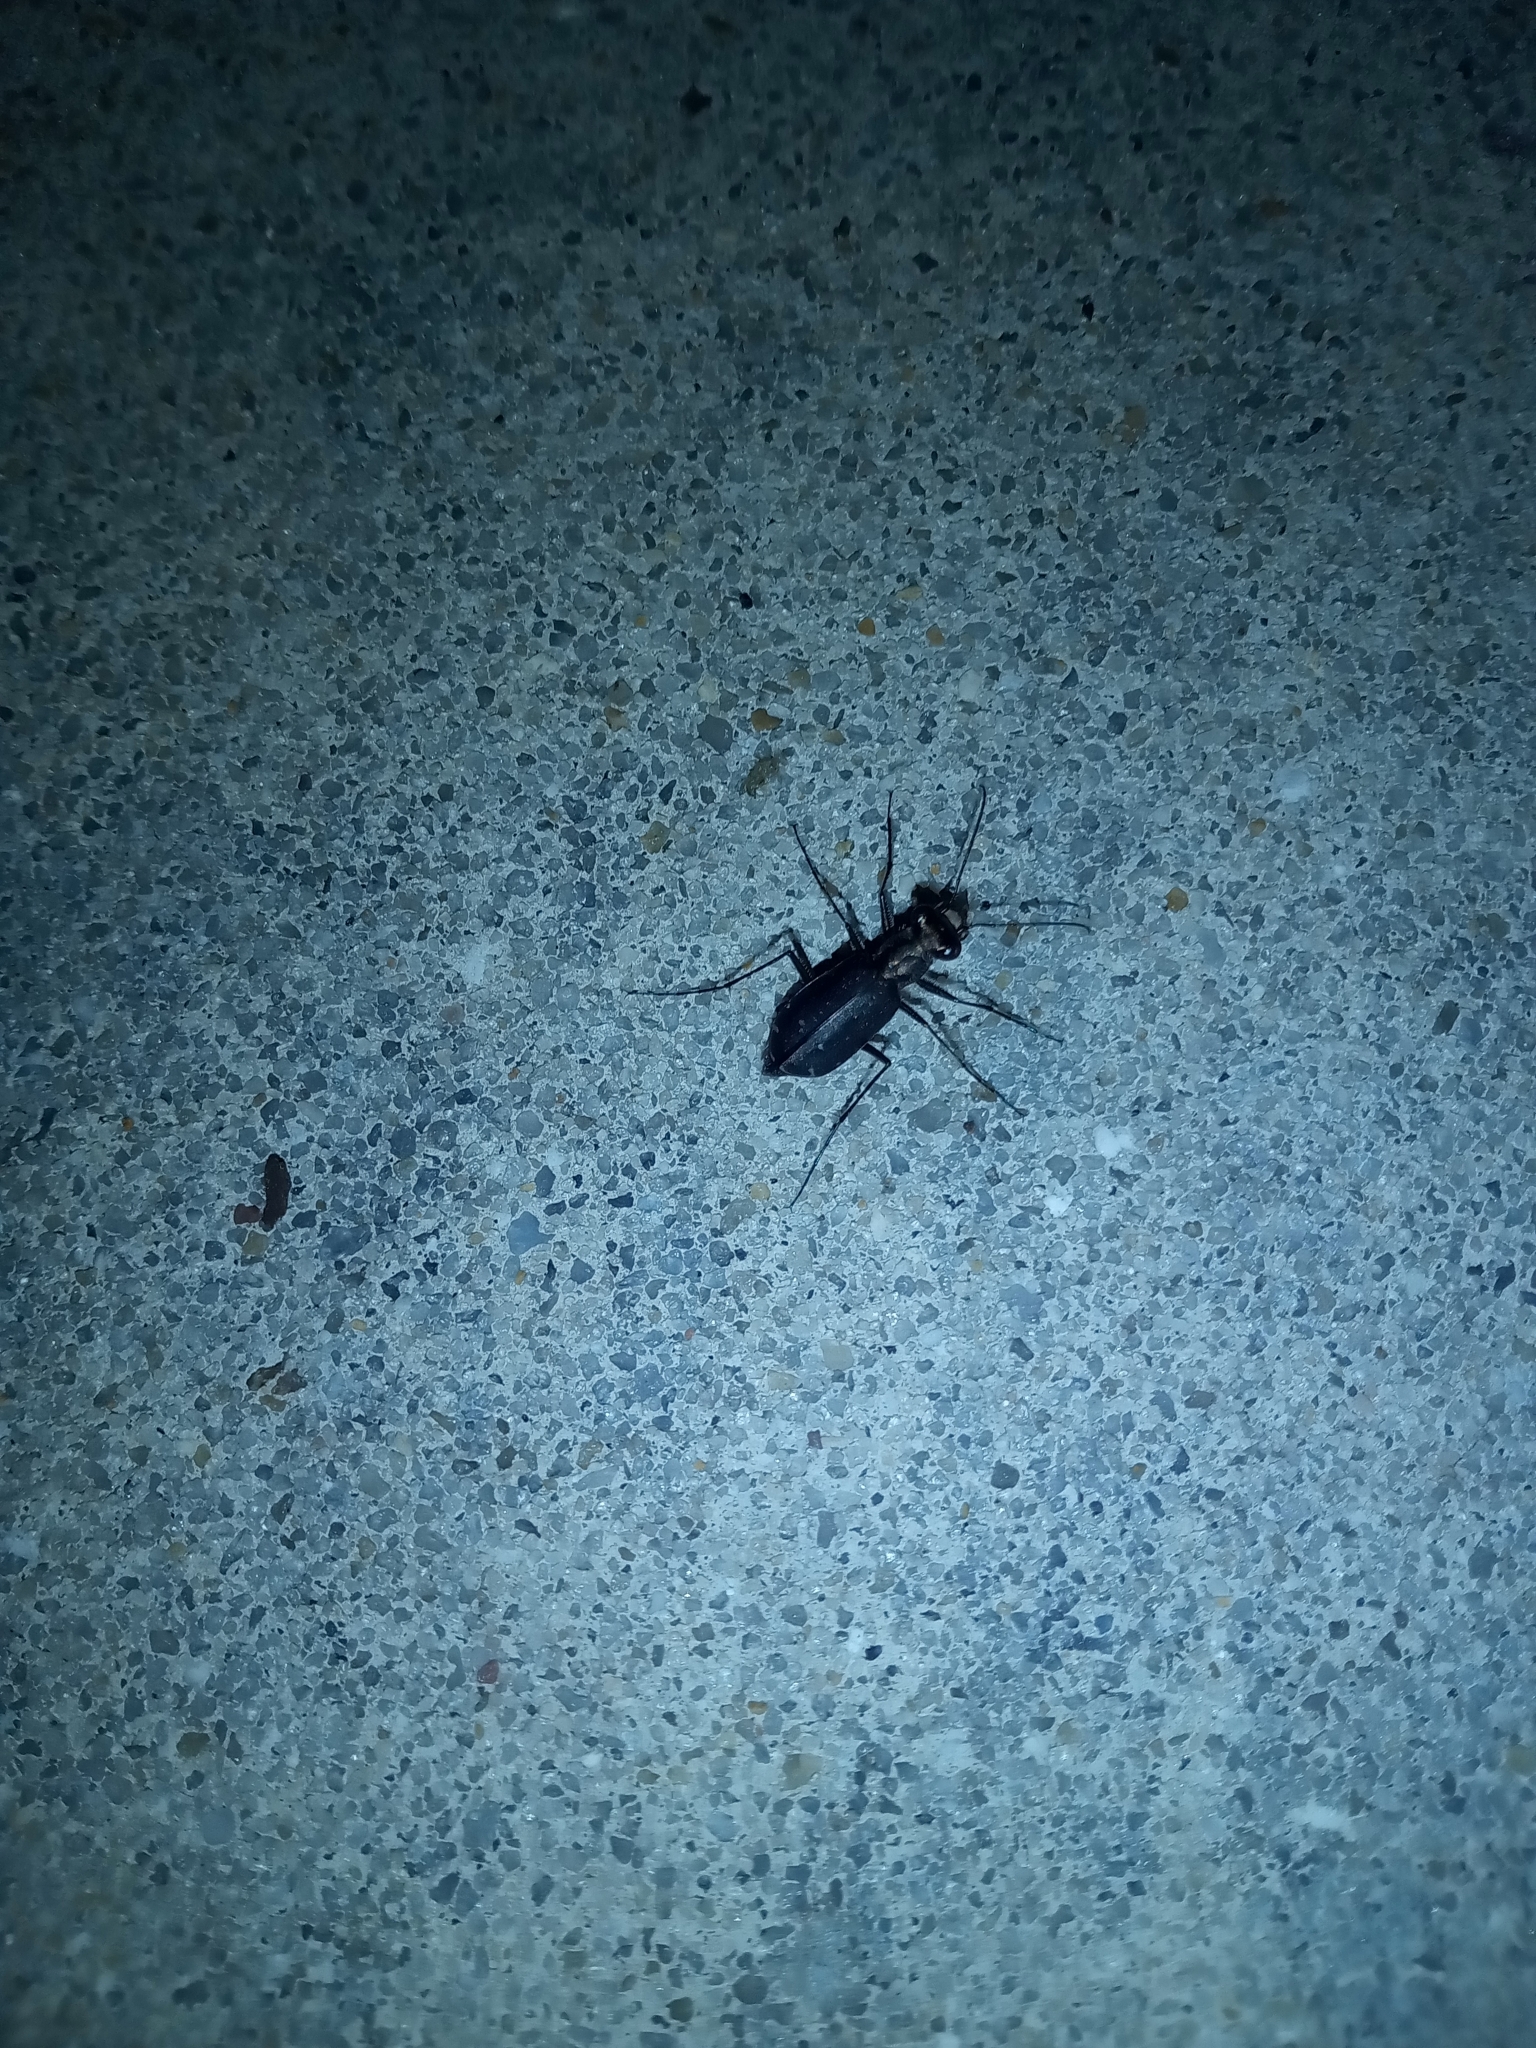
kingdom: Animalia
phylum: Arthropoda
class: Insecta
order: Coleoptera
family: Carabidae
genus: Cicindela
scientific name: Cicindela punctulata
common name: Punctured tiger beetle
